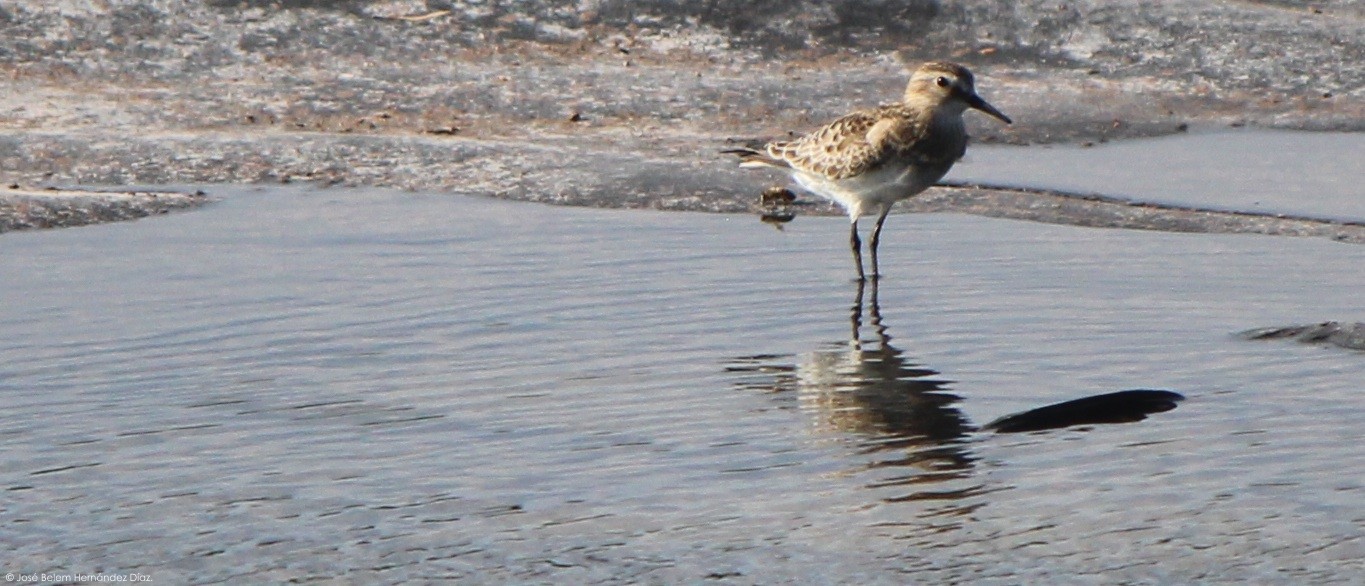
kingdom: Animalia
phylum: Chordata
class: Aves
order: Charadriiformes
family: Scolopacidae
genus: Calidris
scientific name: Calidris bairdii
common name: Baird's sandpiper
